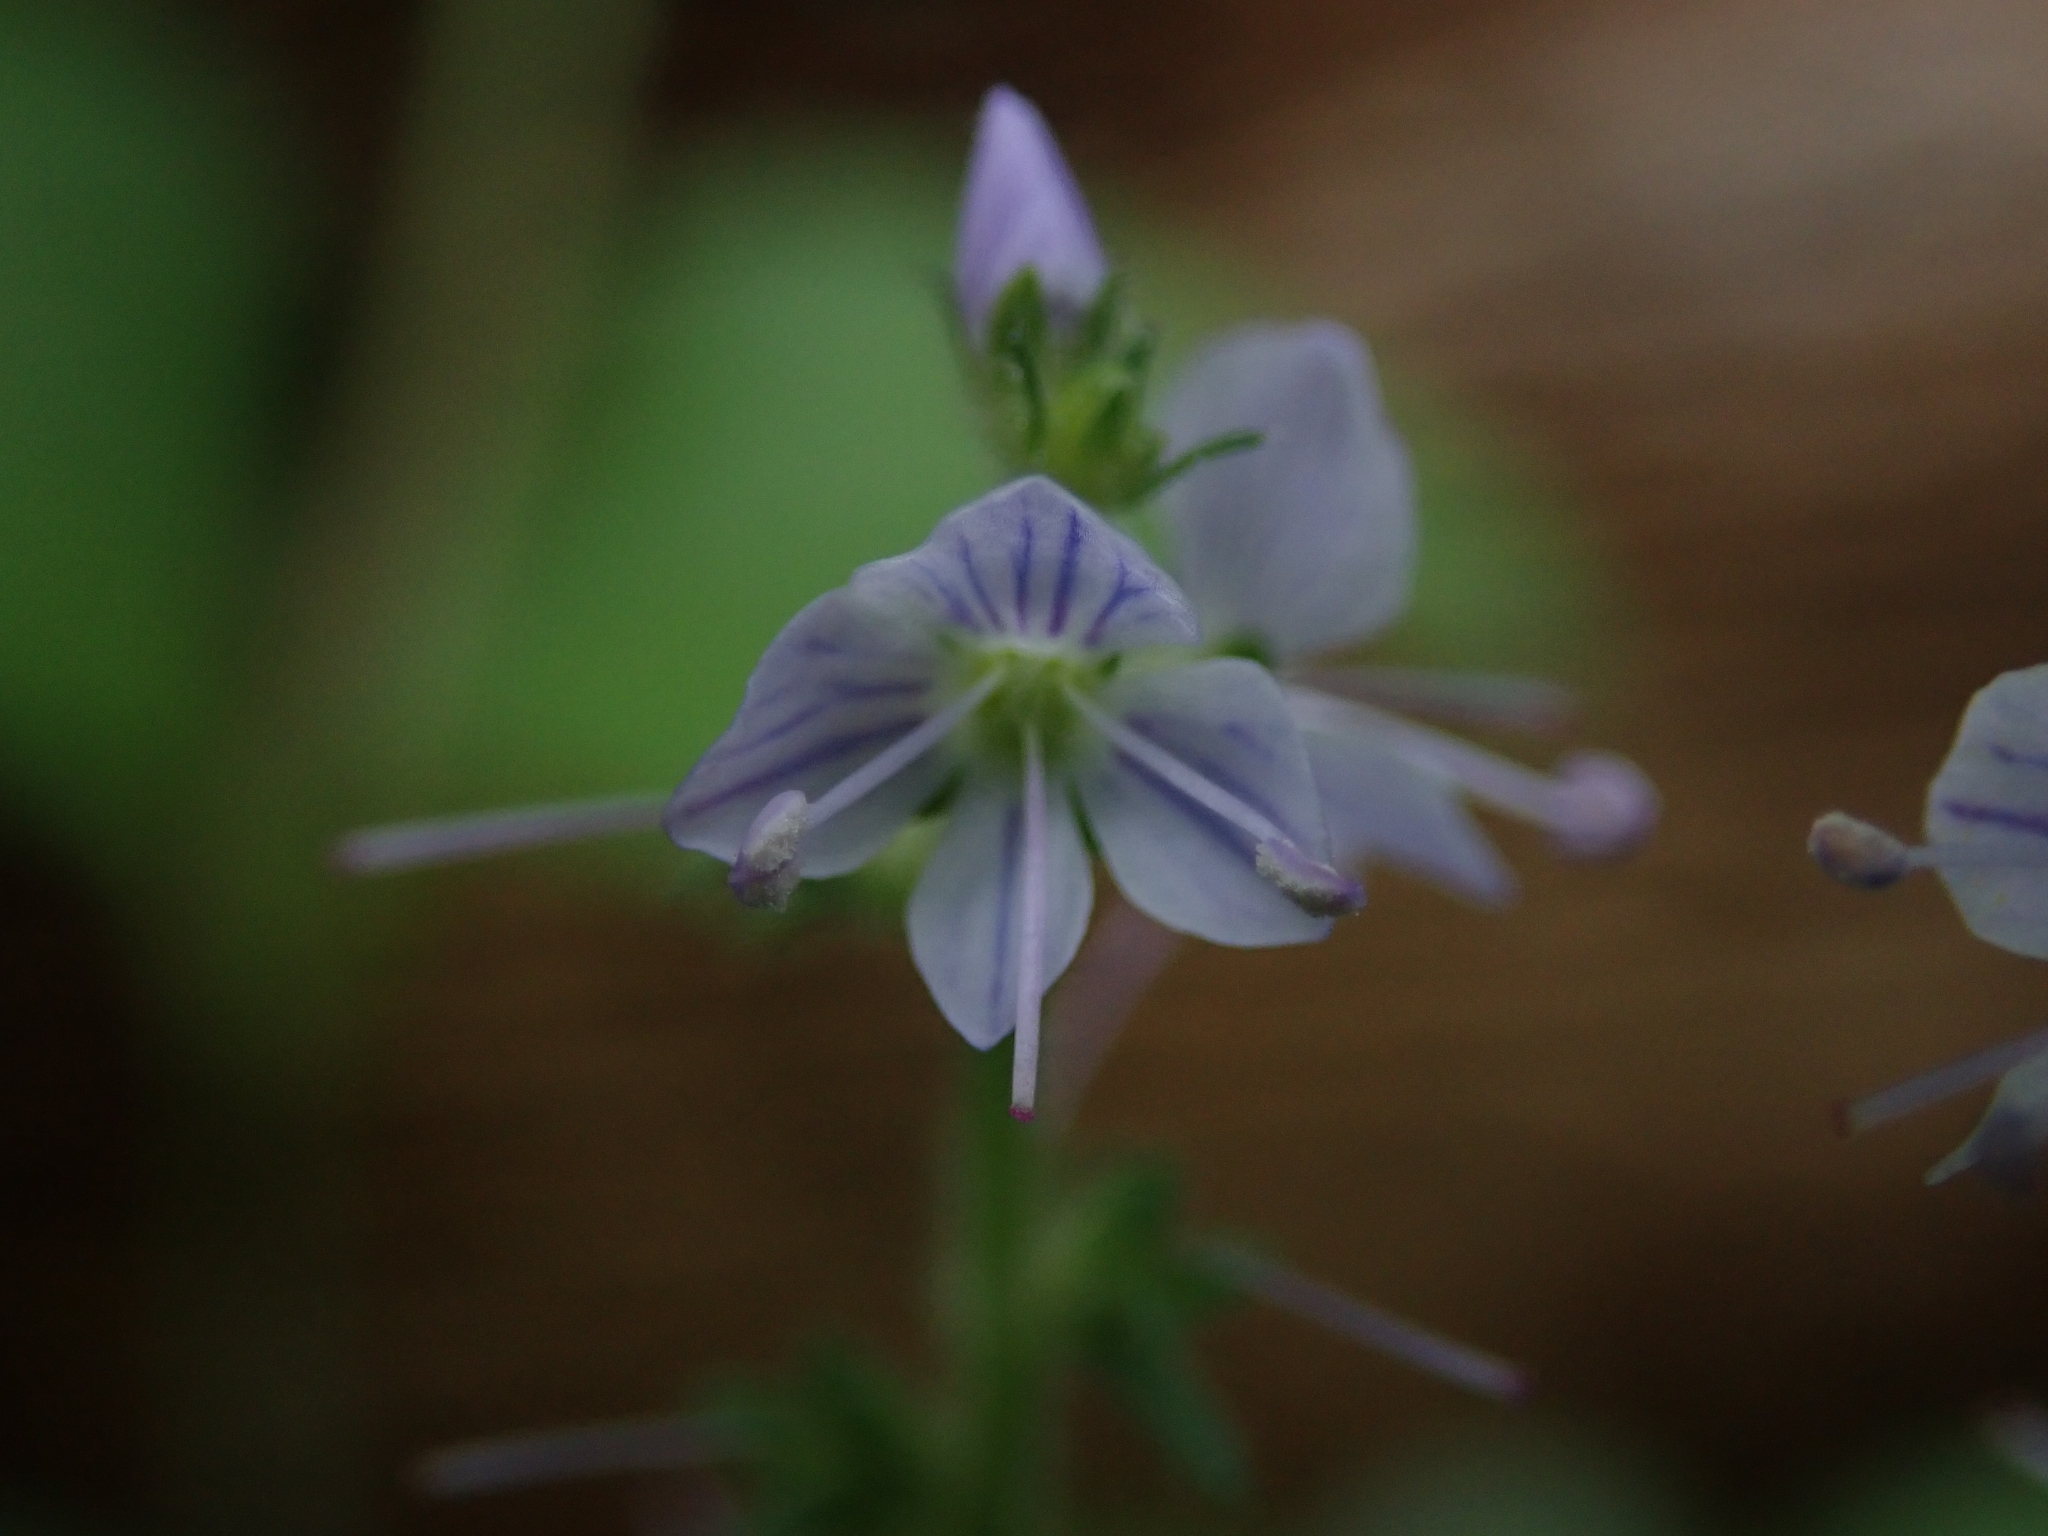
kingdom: Plantae
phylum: Tracheophyta
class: Magnoliopsida
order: Lamiales
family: Plantaginaceae
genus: Veronica
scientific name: Veronica officinalis
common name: Common speedwell
